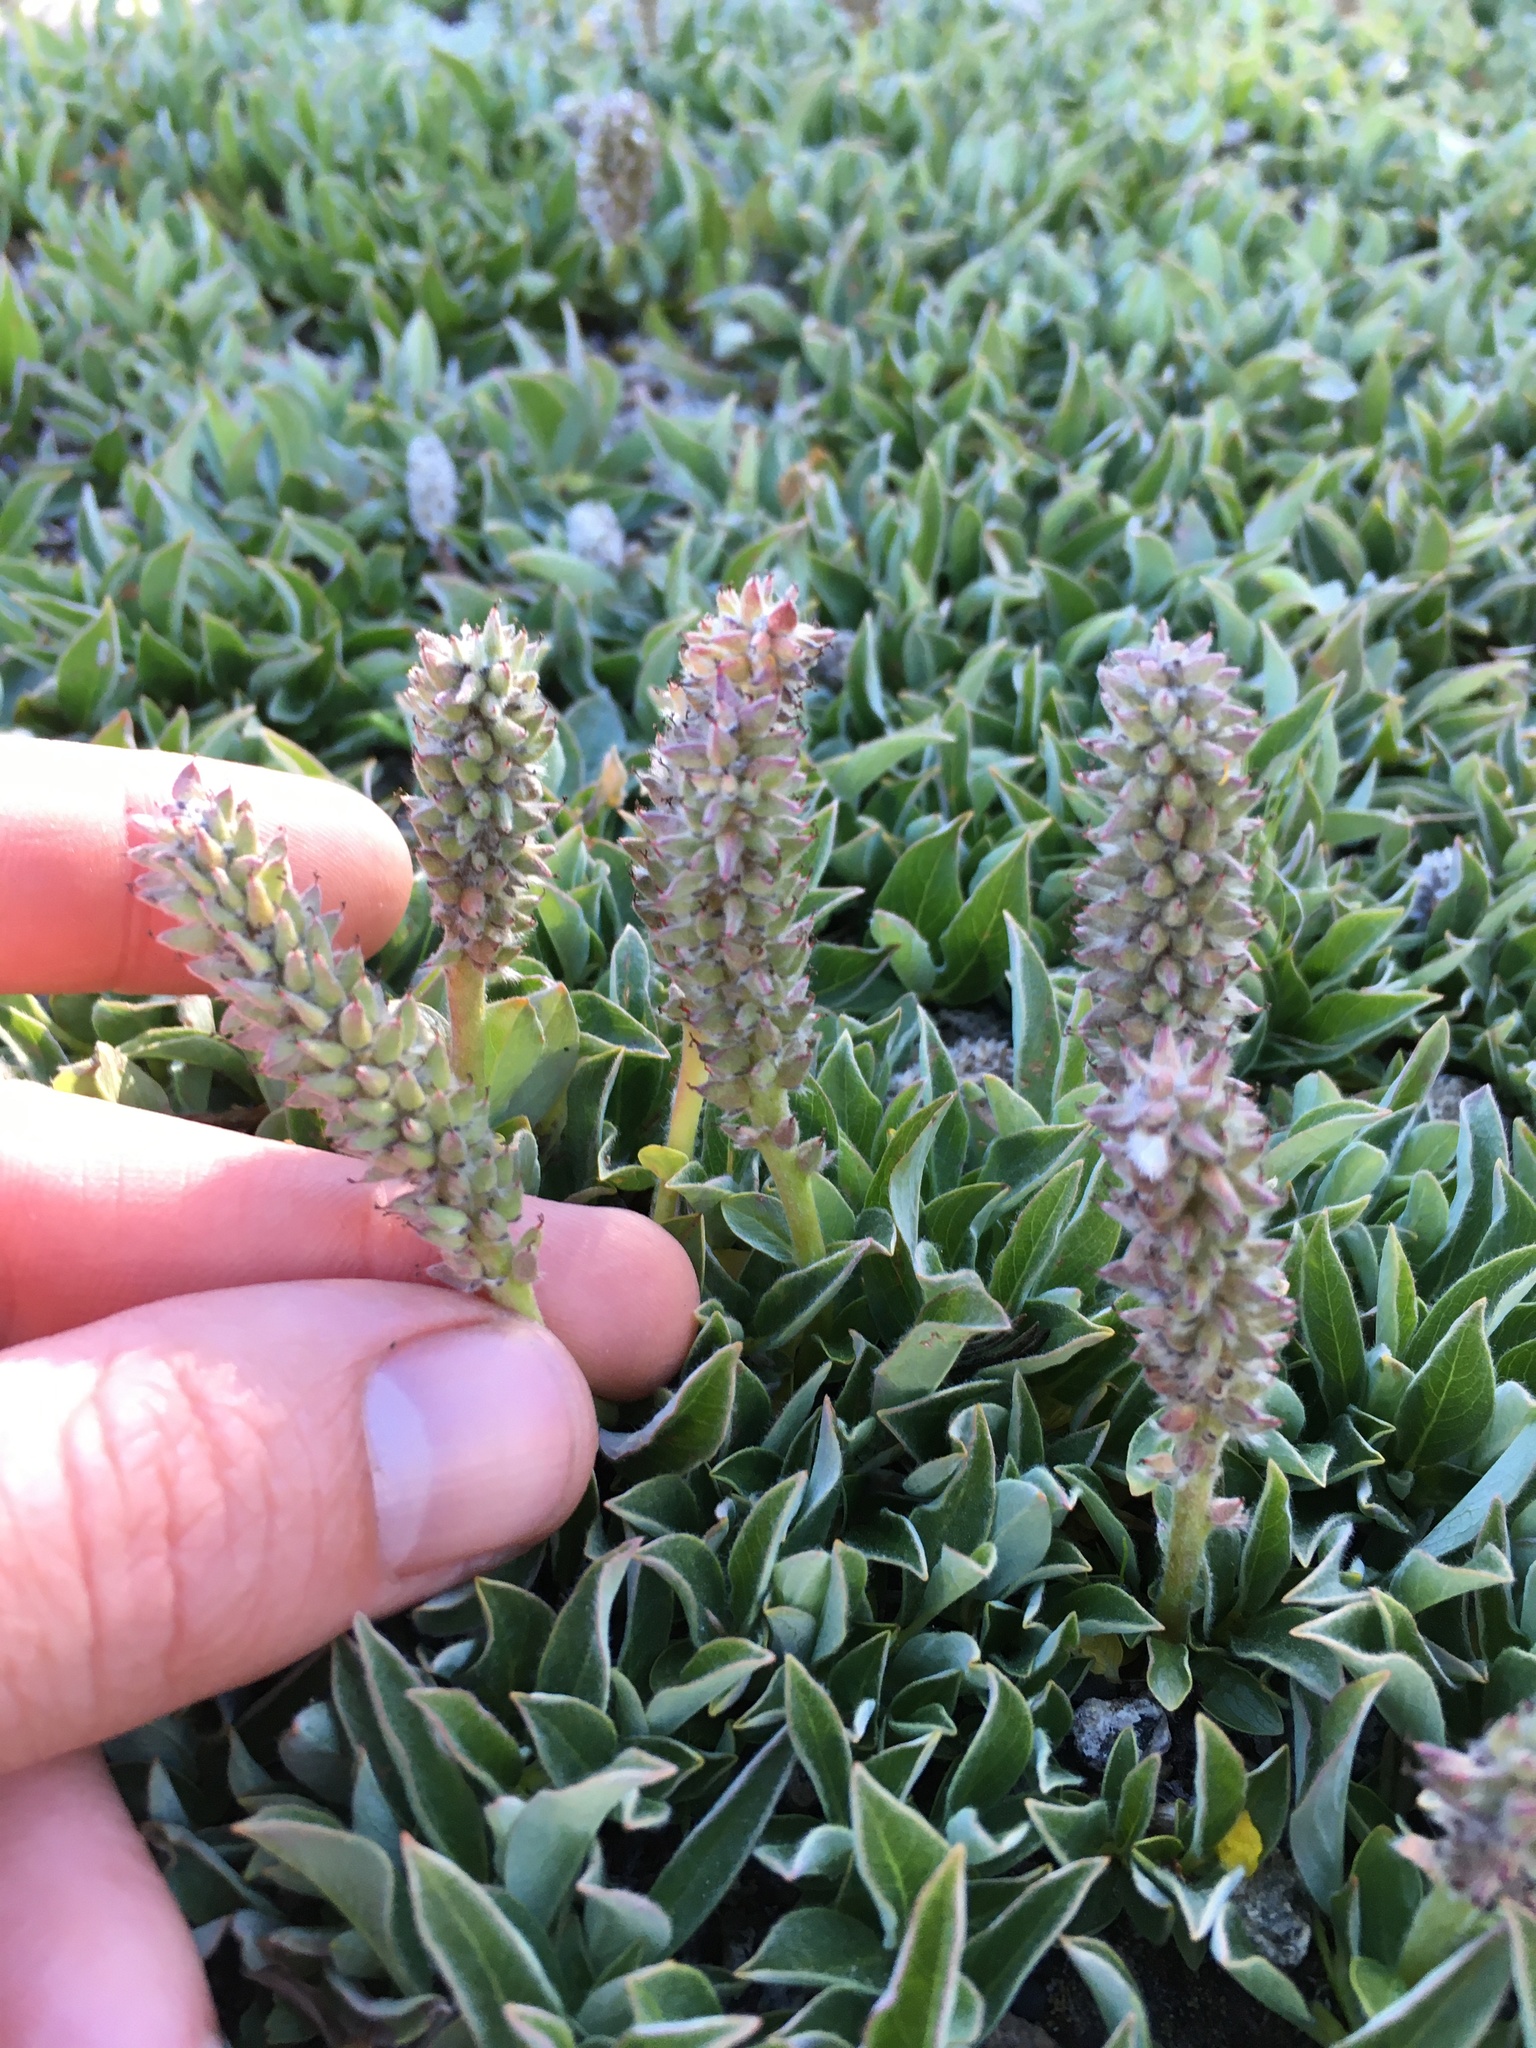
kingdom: Plantae
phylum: Tracheophyta
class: Magnoliopsida
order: Malpighiales
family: Salicaceae
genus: Salix
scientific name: Salix petrophila
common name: Rocky mountain willow
